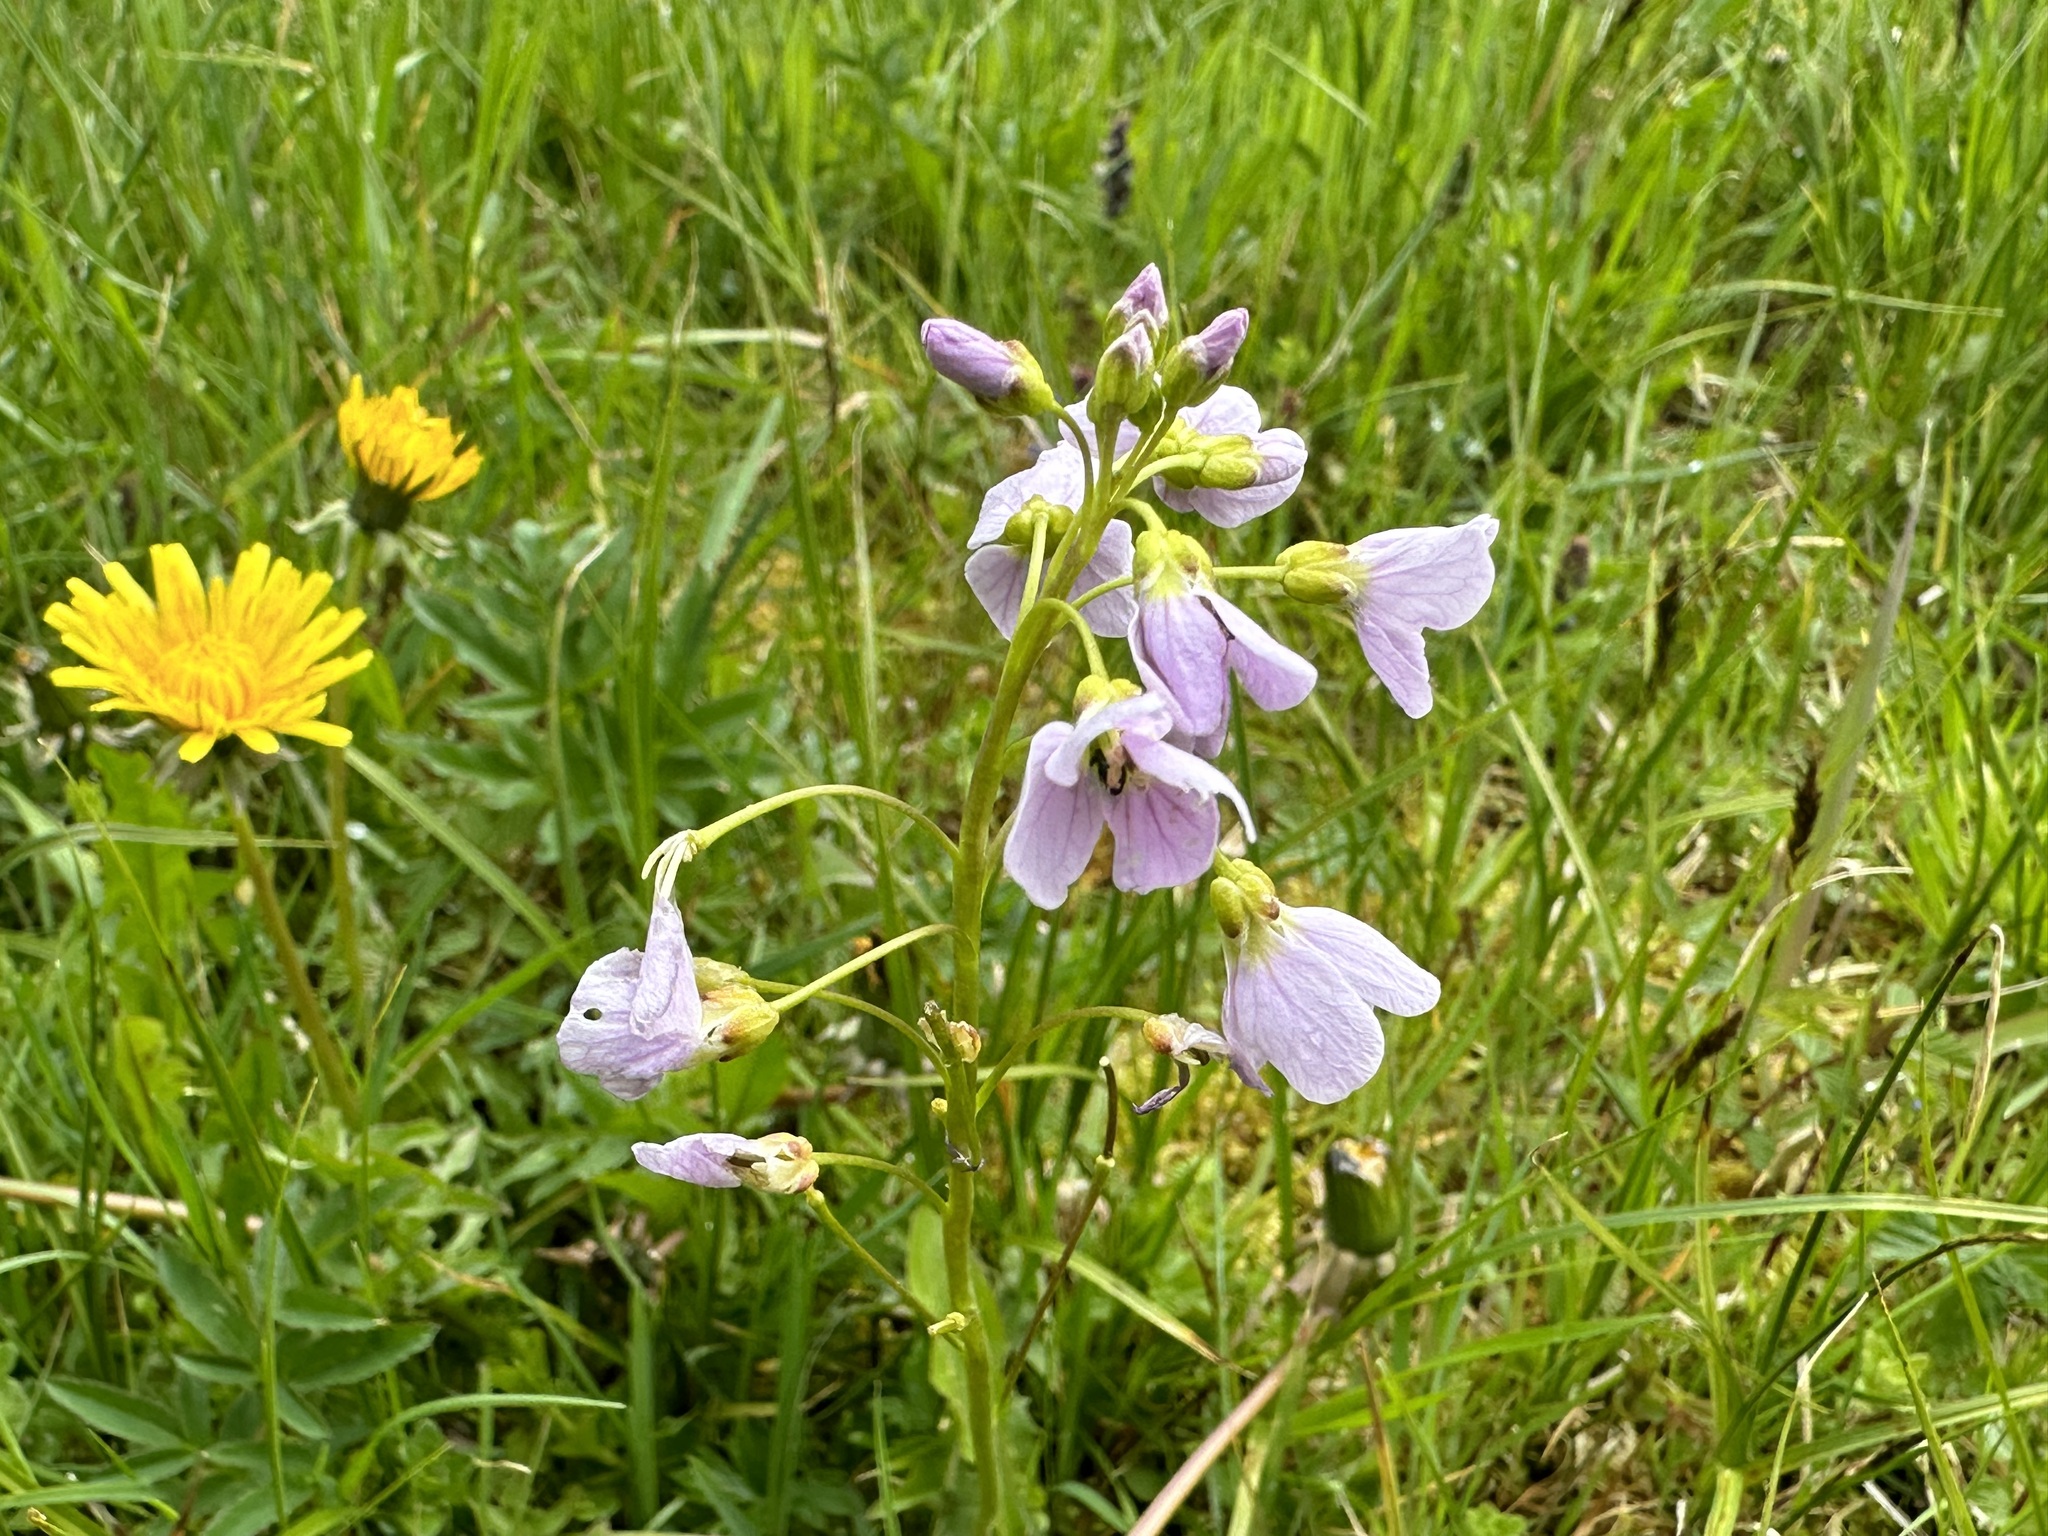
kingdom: Plantae
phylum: Tracheophyta
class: Magnoliopsida
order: Brassicales
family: Brassicaceae
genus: Cardamine
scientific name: Cardamine pratensis
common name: Cuckoo flower
